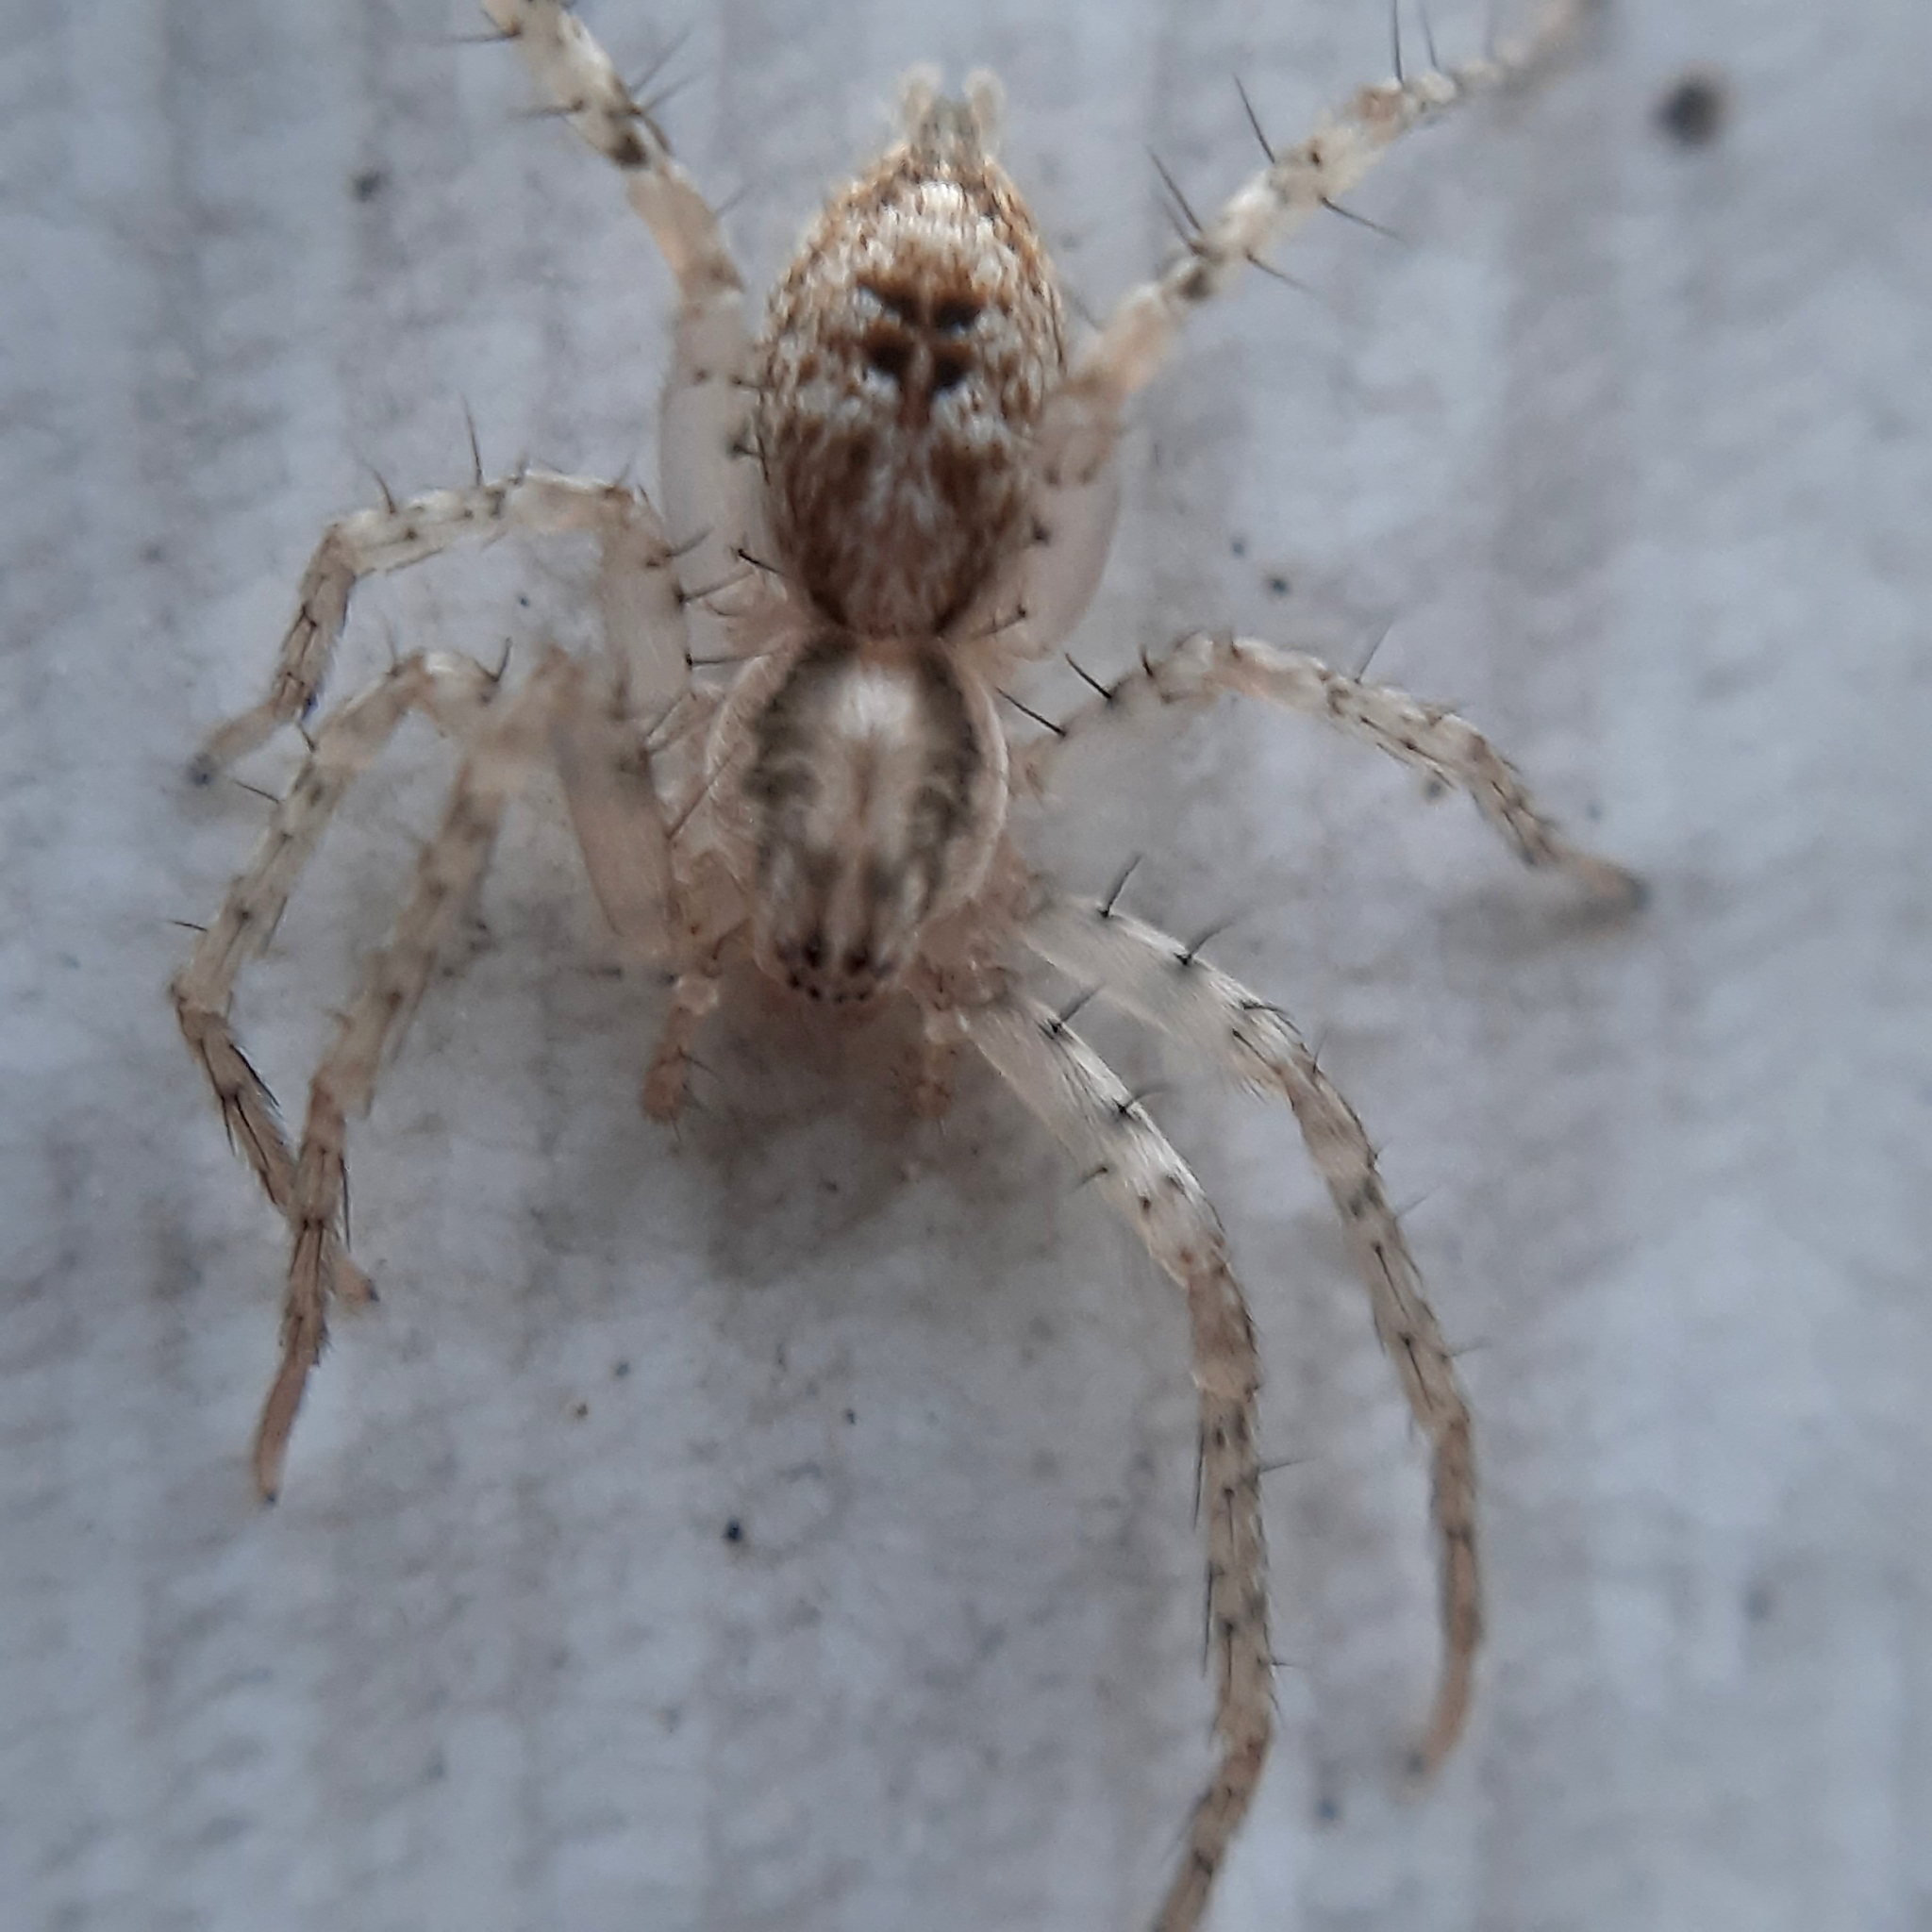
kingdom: Animalia
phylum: Arthropoda
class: Arachnida
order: Araneae
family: Anyphaenidae
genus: Anyphaena
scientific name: Anyphaena accentuata
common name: Buzzing spider
